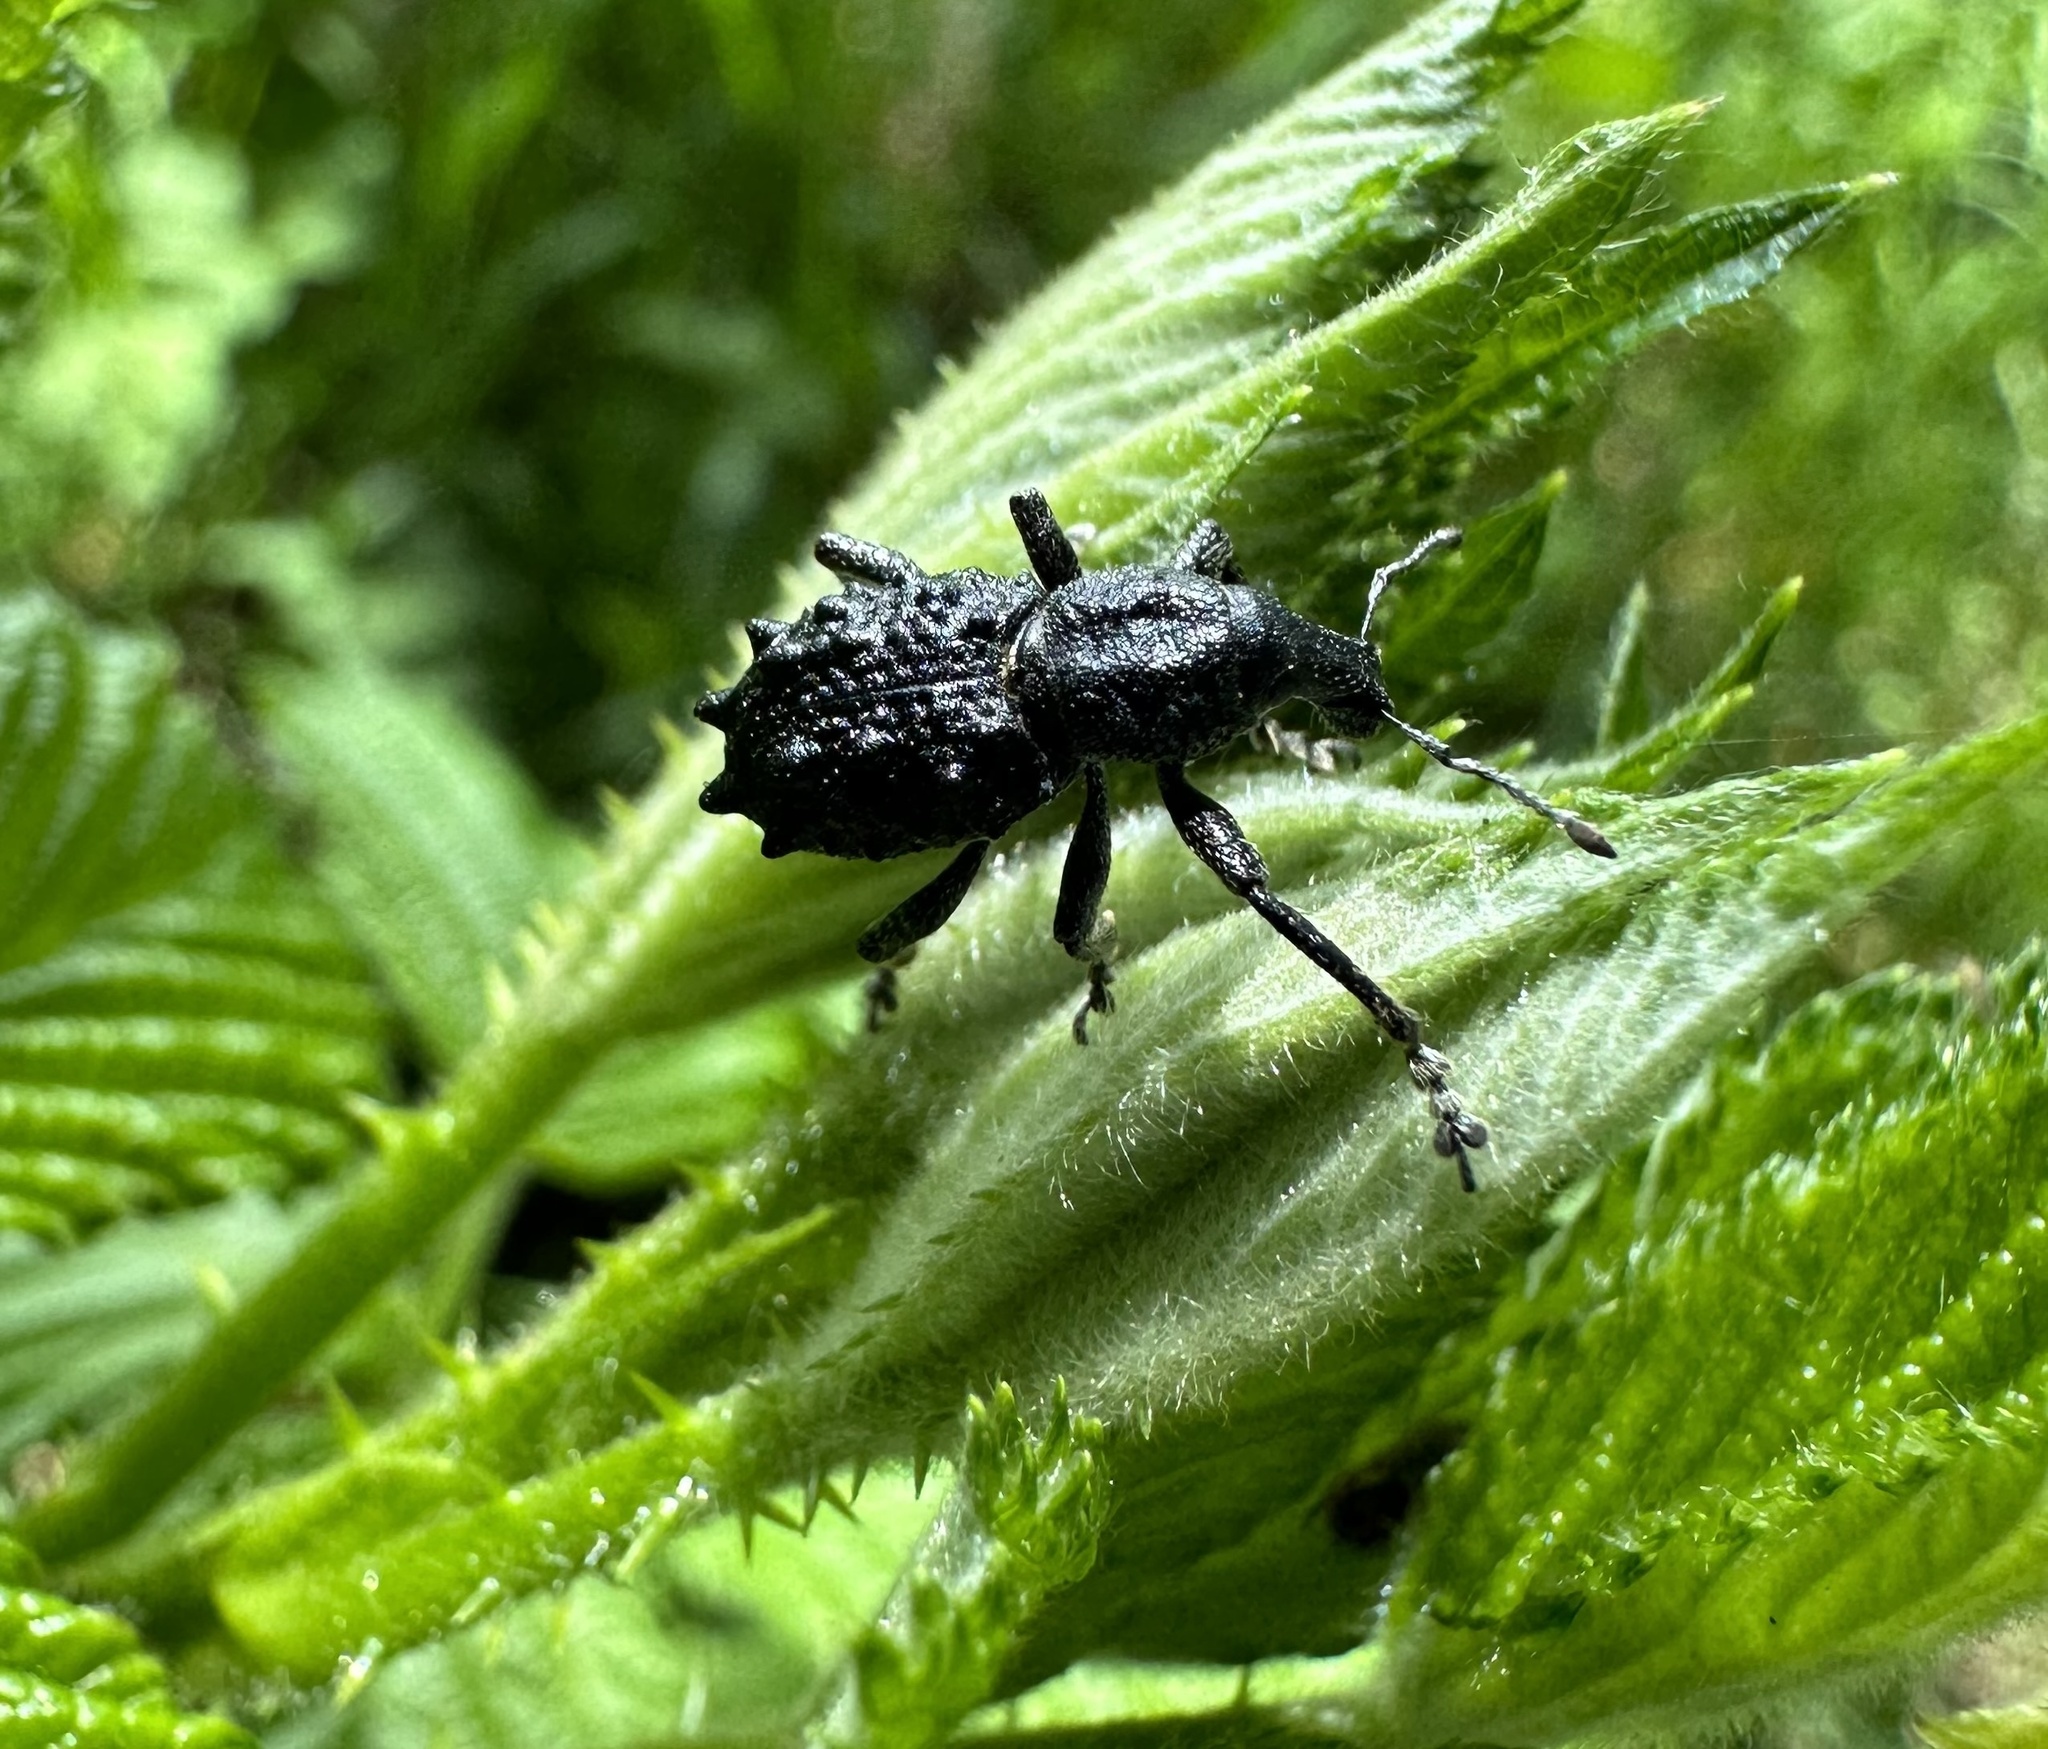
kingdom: Animalia
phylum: Arthropoda
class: Insecta
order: Coleoptera
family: Curculionidae
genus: Megalometis
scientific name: Megalometis spiniferus
